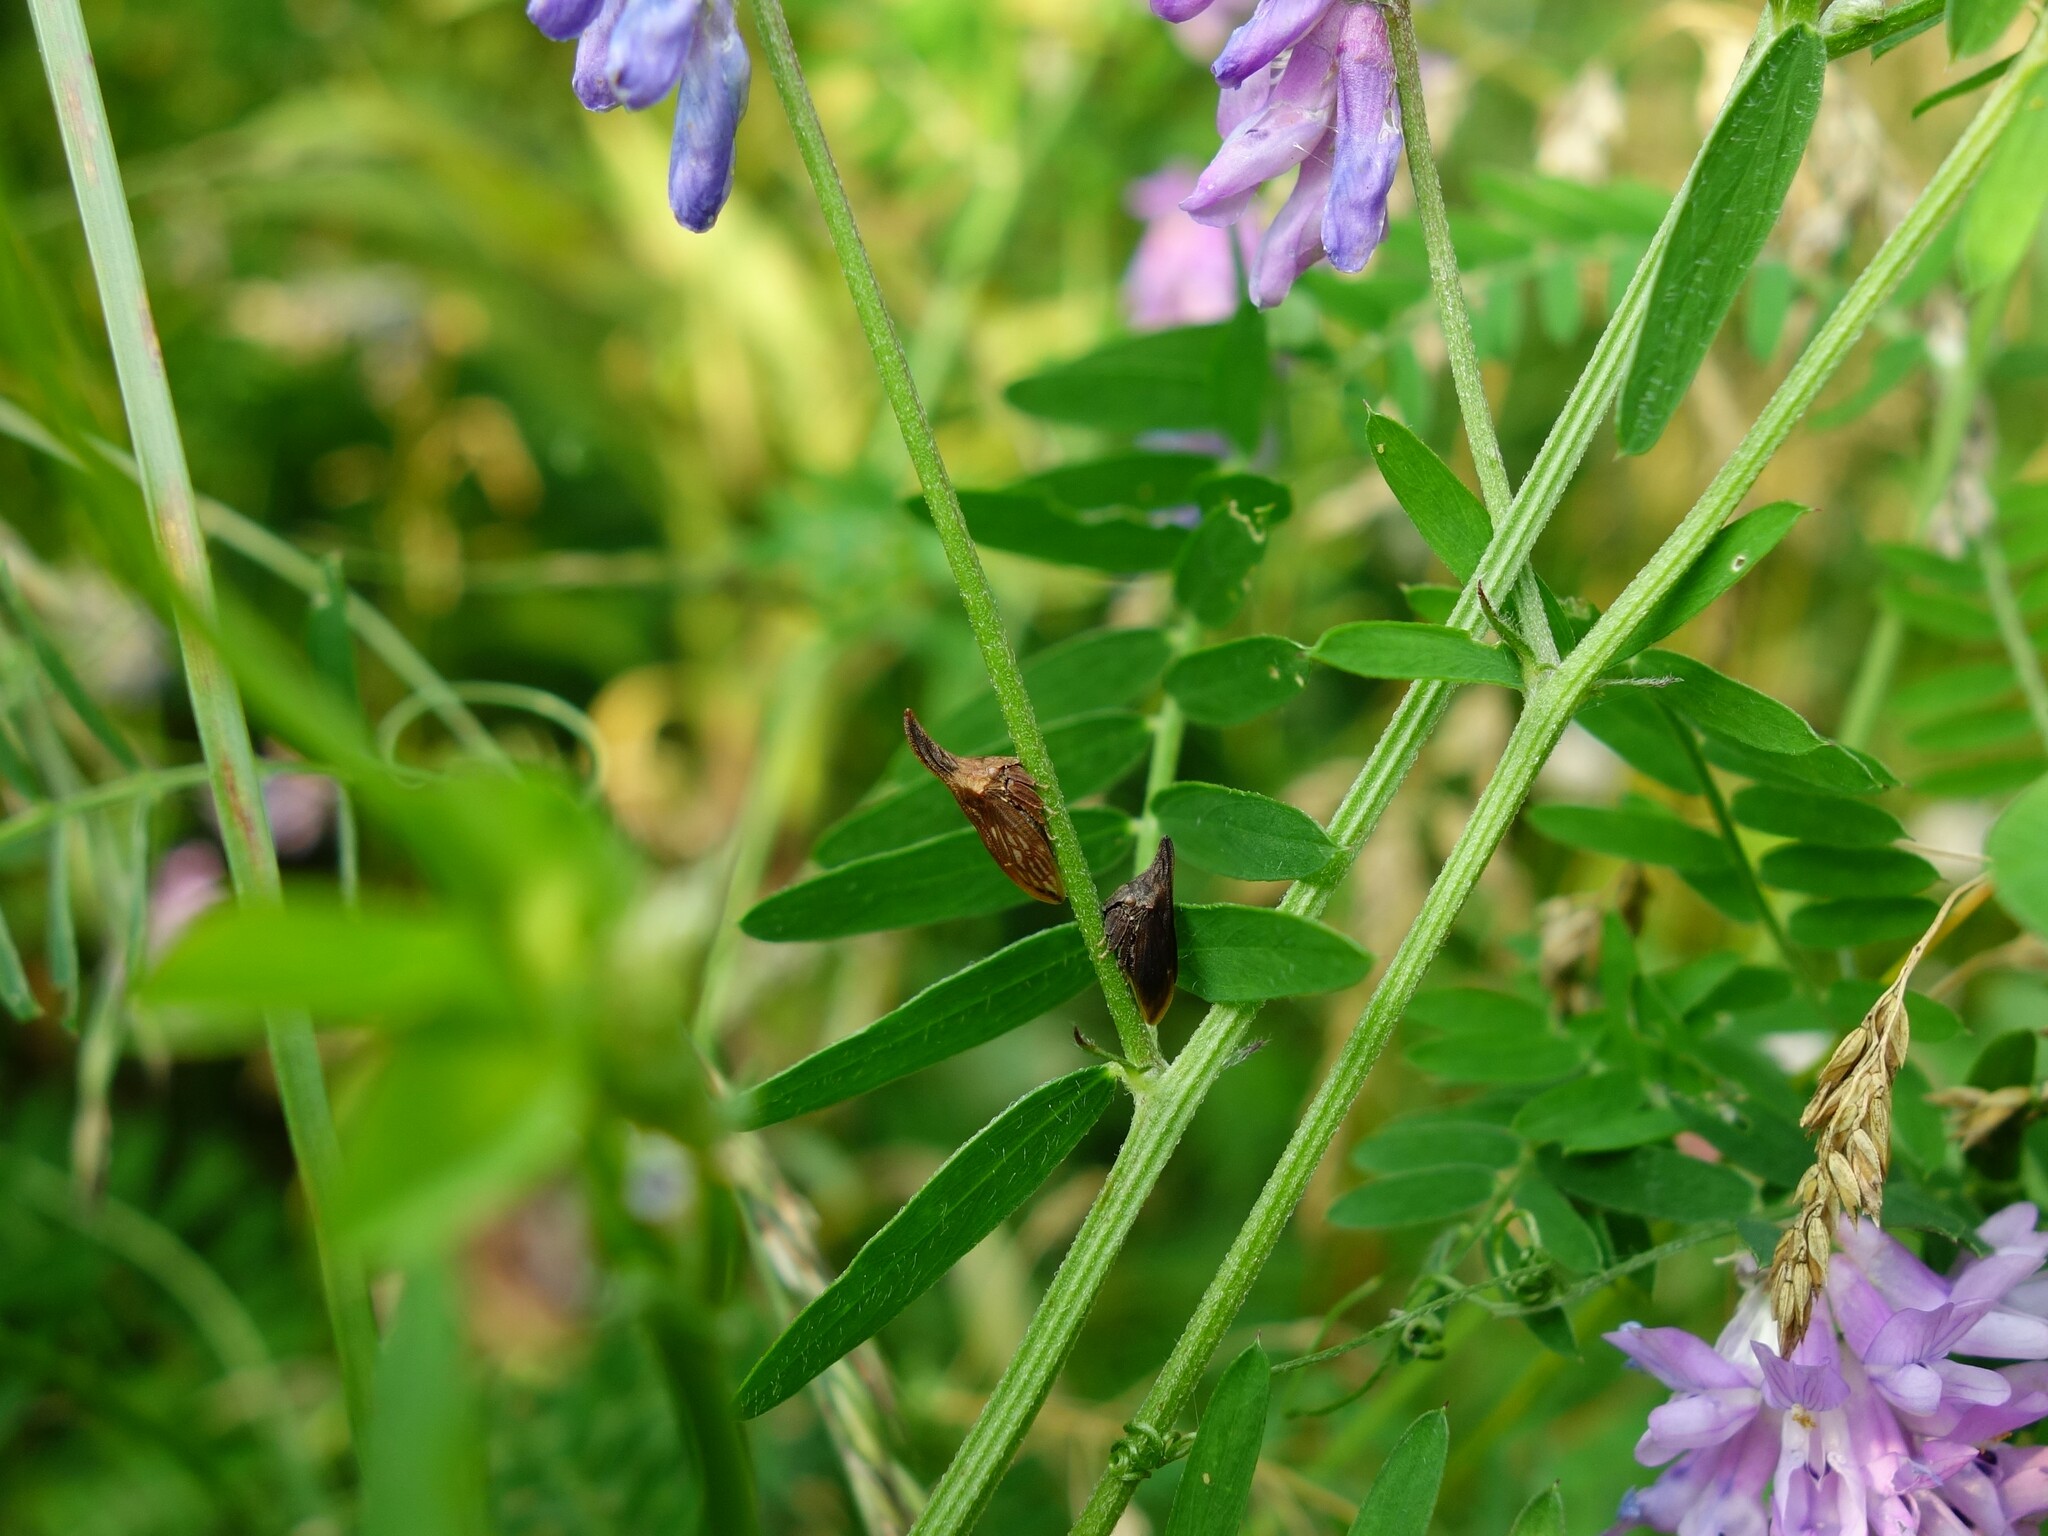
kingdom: Animalia
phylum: Arthropoda
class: Insecta
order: Hemiptera
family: Membracidae
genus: Enchenopa
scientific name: Enchenopa latipes
